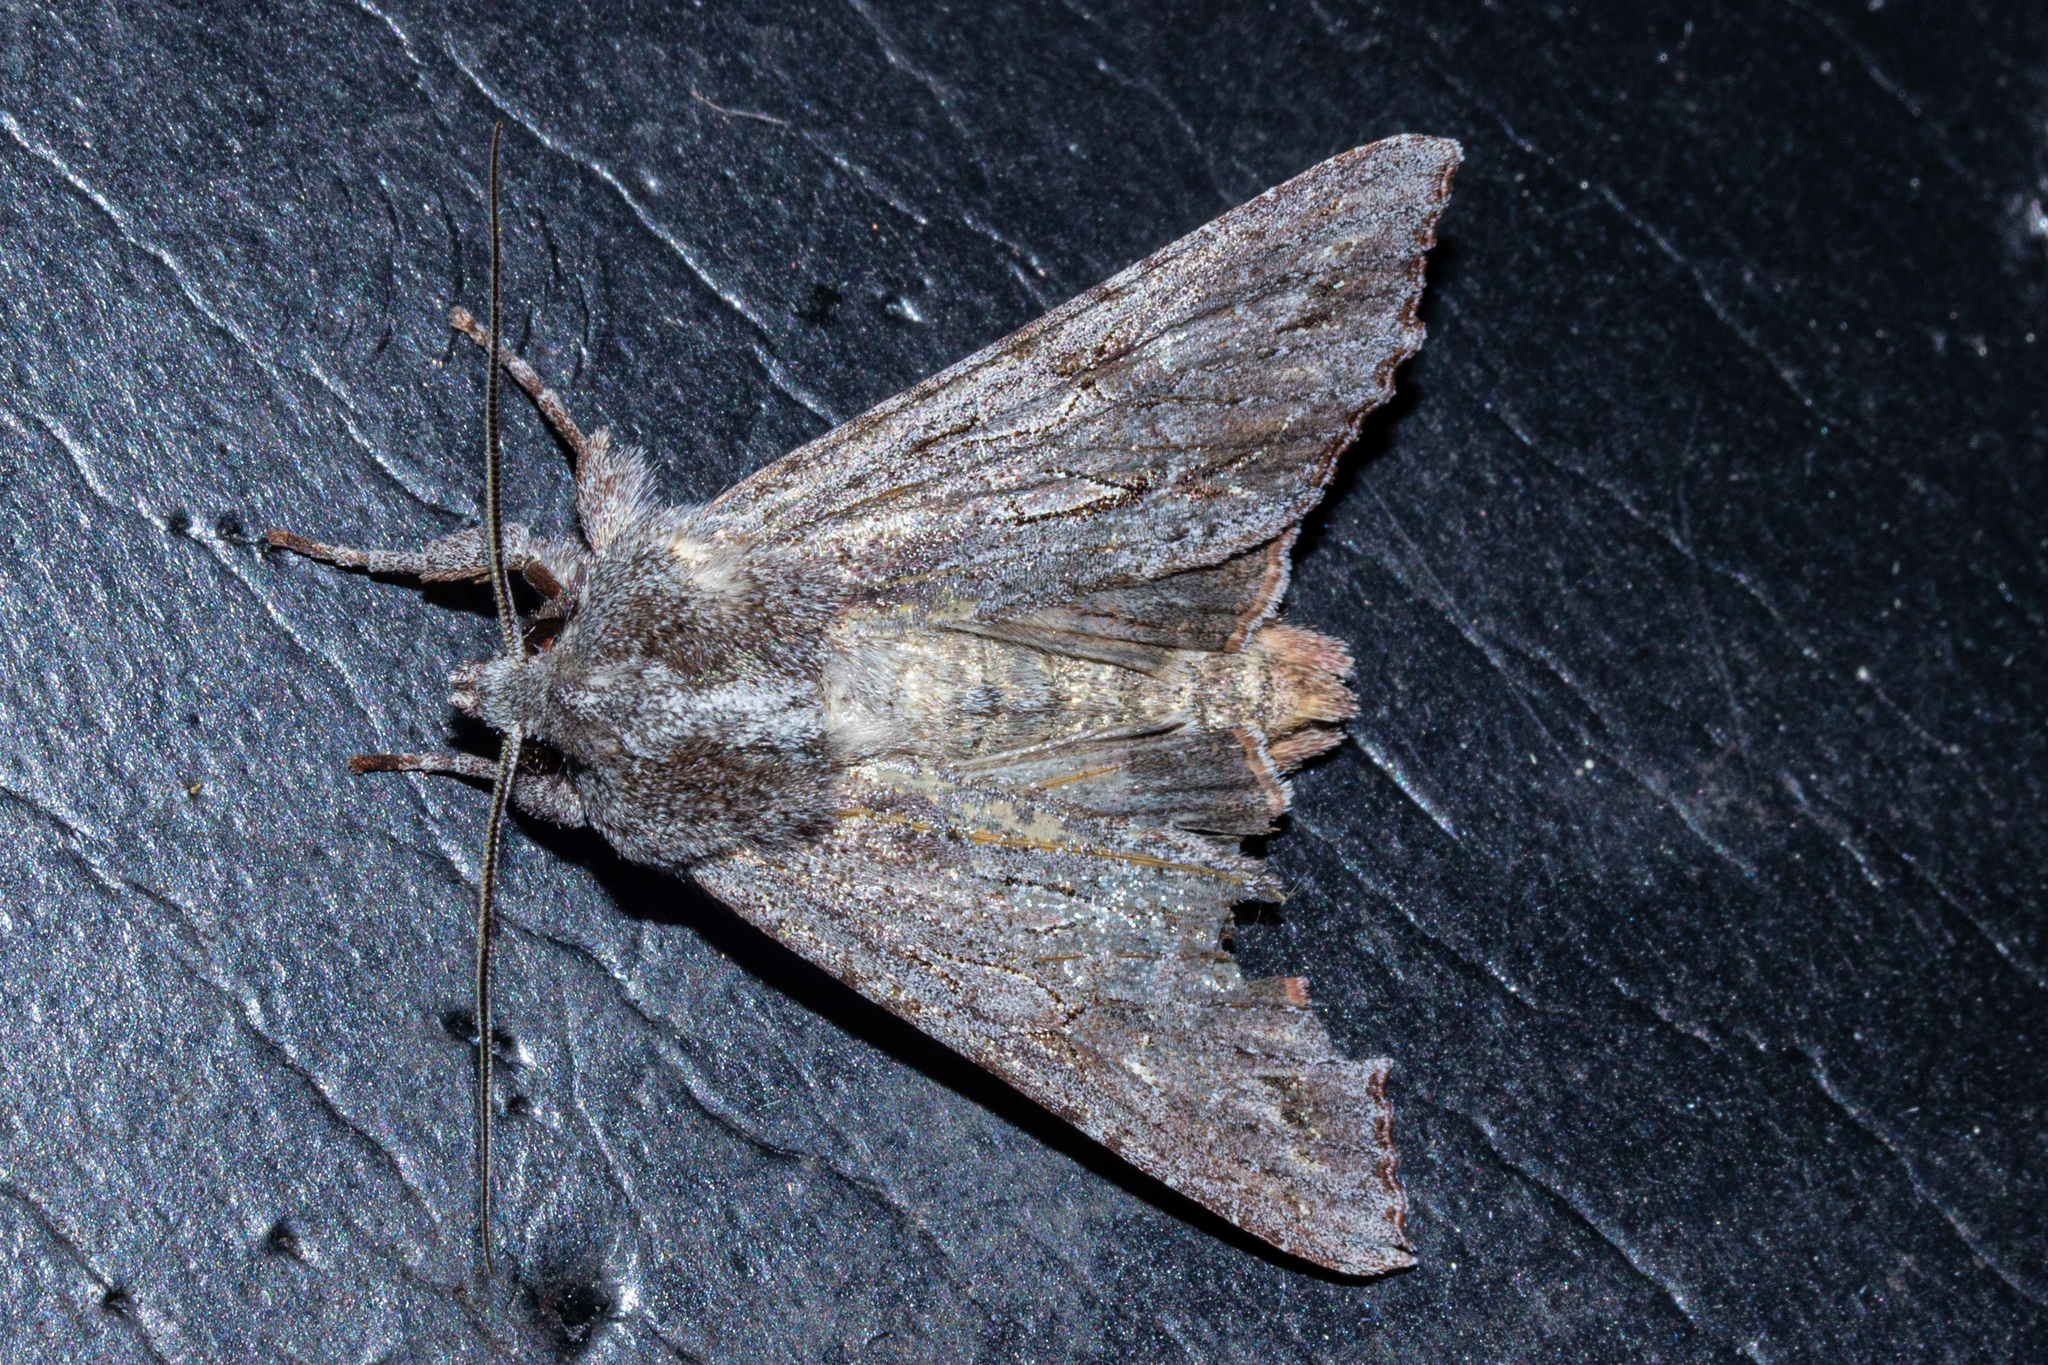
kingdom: Animalia
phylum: Arthropoda
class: Insecta
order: Lepidoptera
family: Noctuidae
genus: Ichneutica
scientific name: Ichneutica
